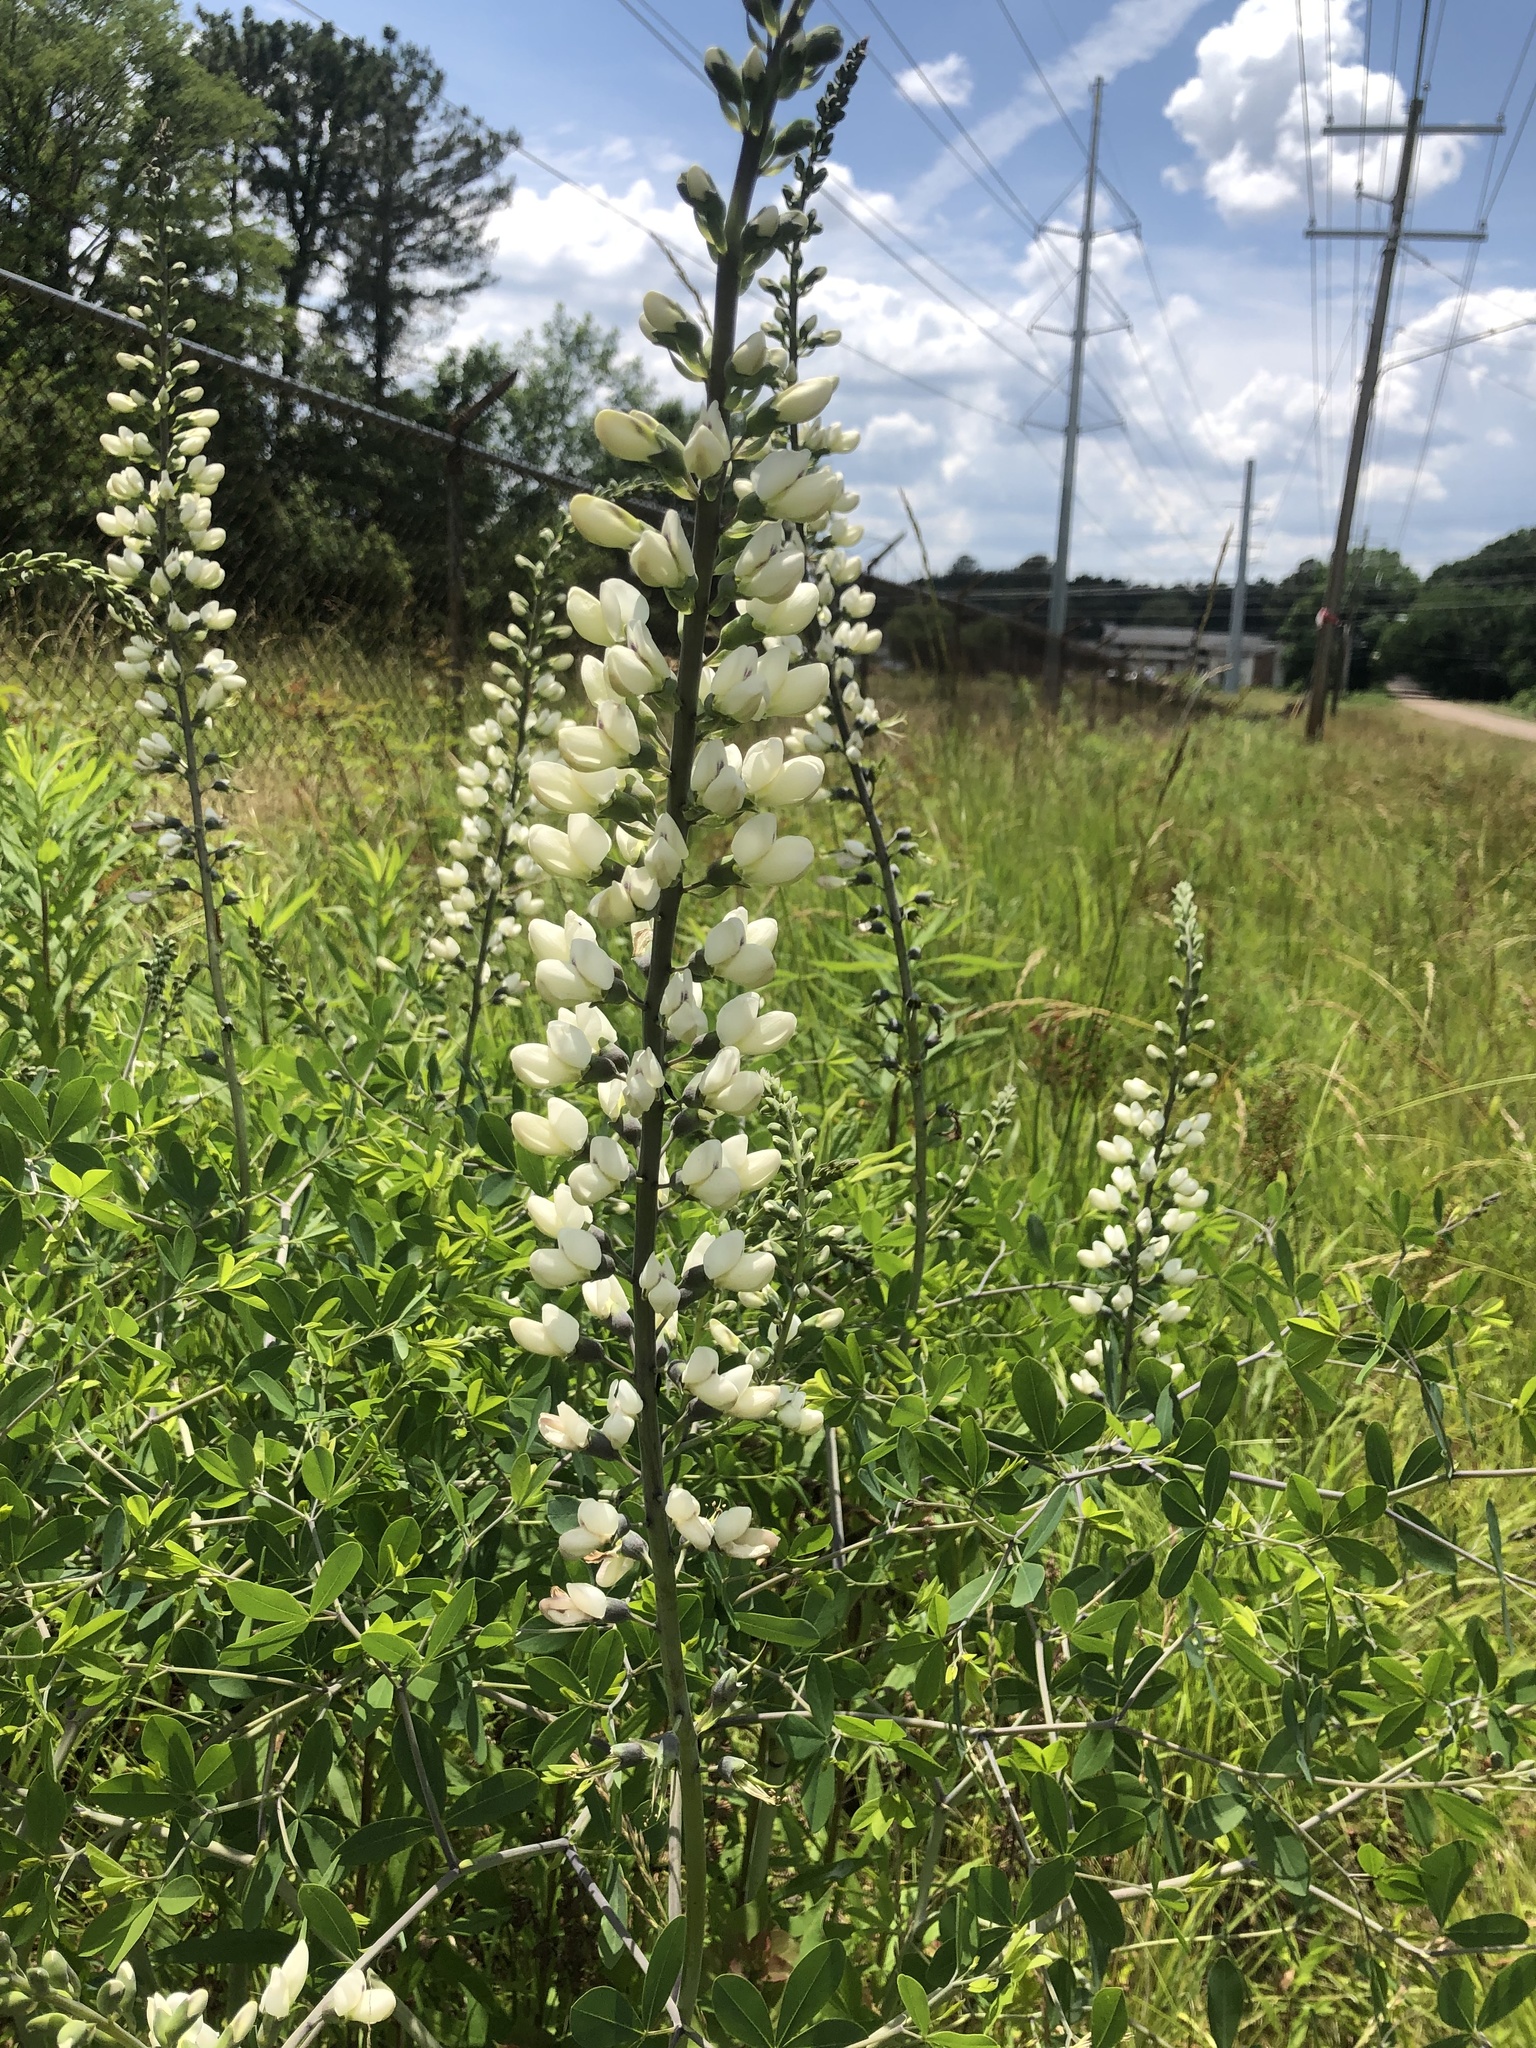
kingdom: Plantae
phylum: Tracheophyta
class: Magnoliopsida
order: Fabales
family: Fabaceae
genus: Baptisia
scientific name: Baptisia alba
